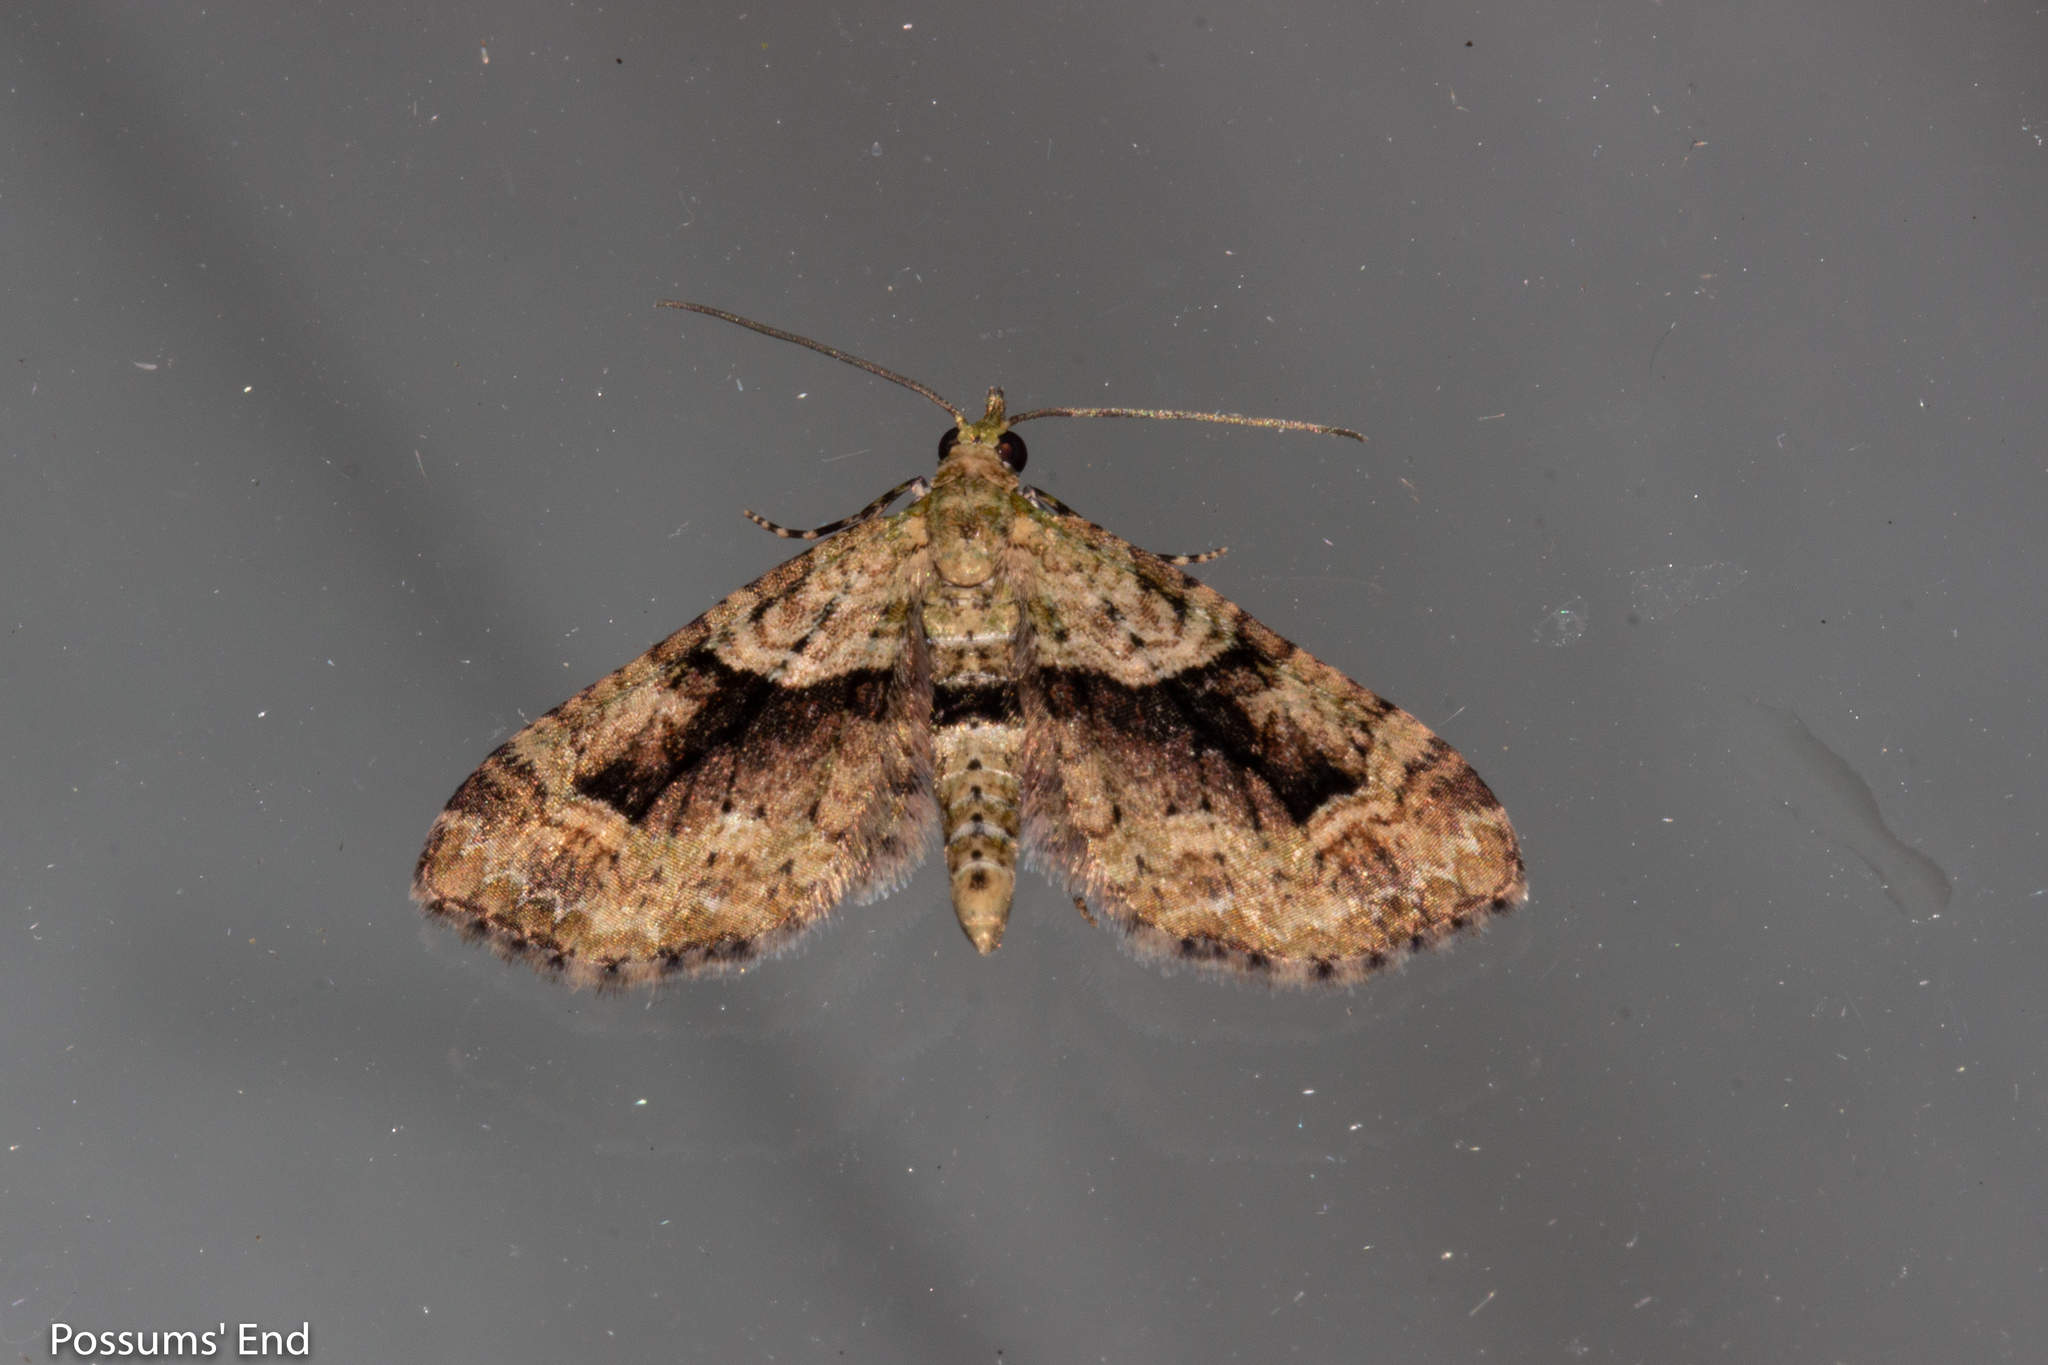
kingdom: Animalia
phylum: Arthropoda
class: Insecta
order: Lepidoptera
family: Geometridae
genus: Pasiphila
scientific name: Pasiphila suffusa
